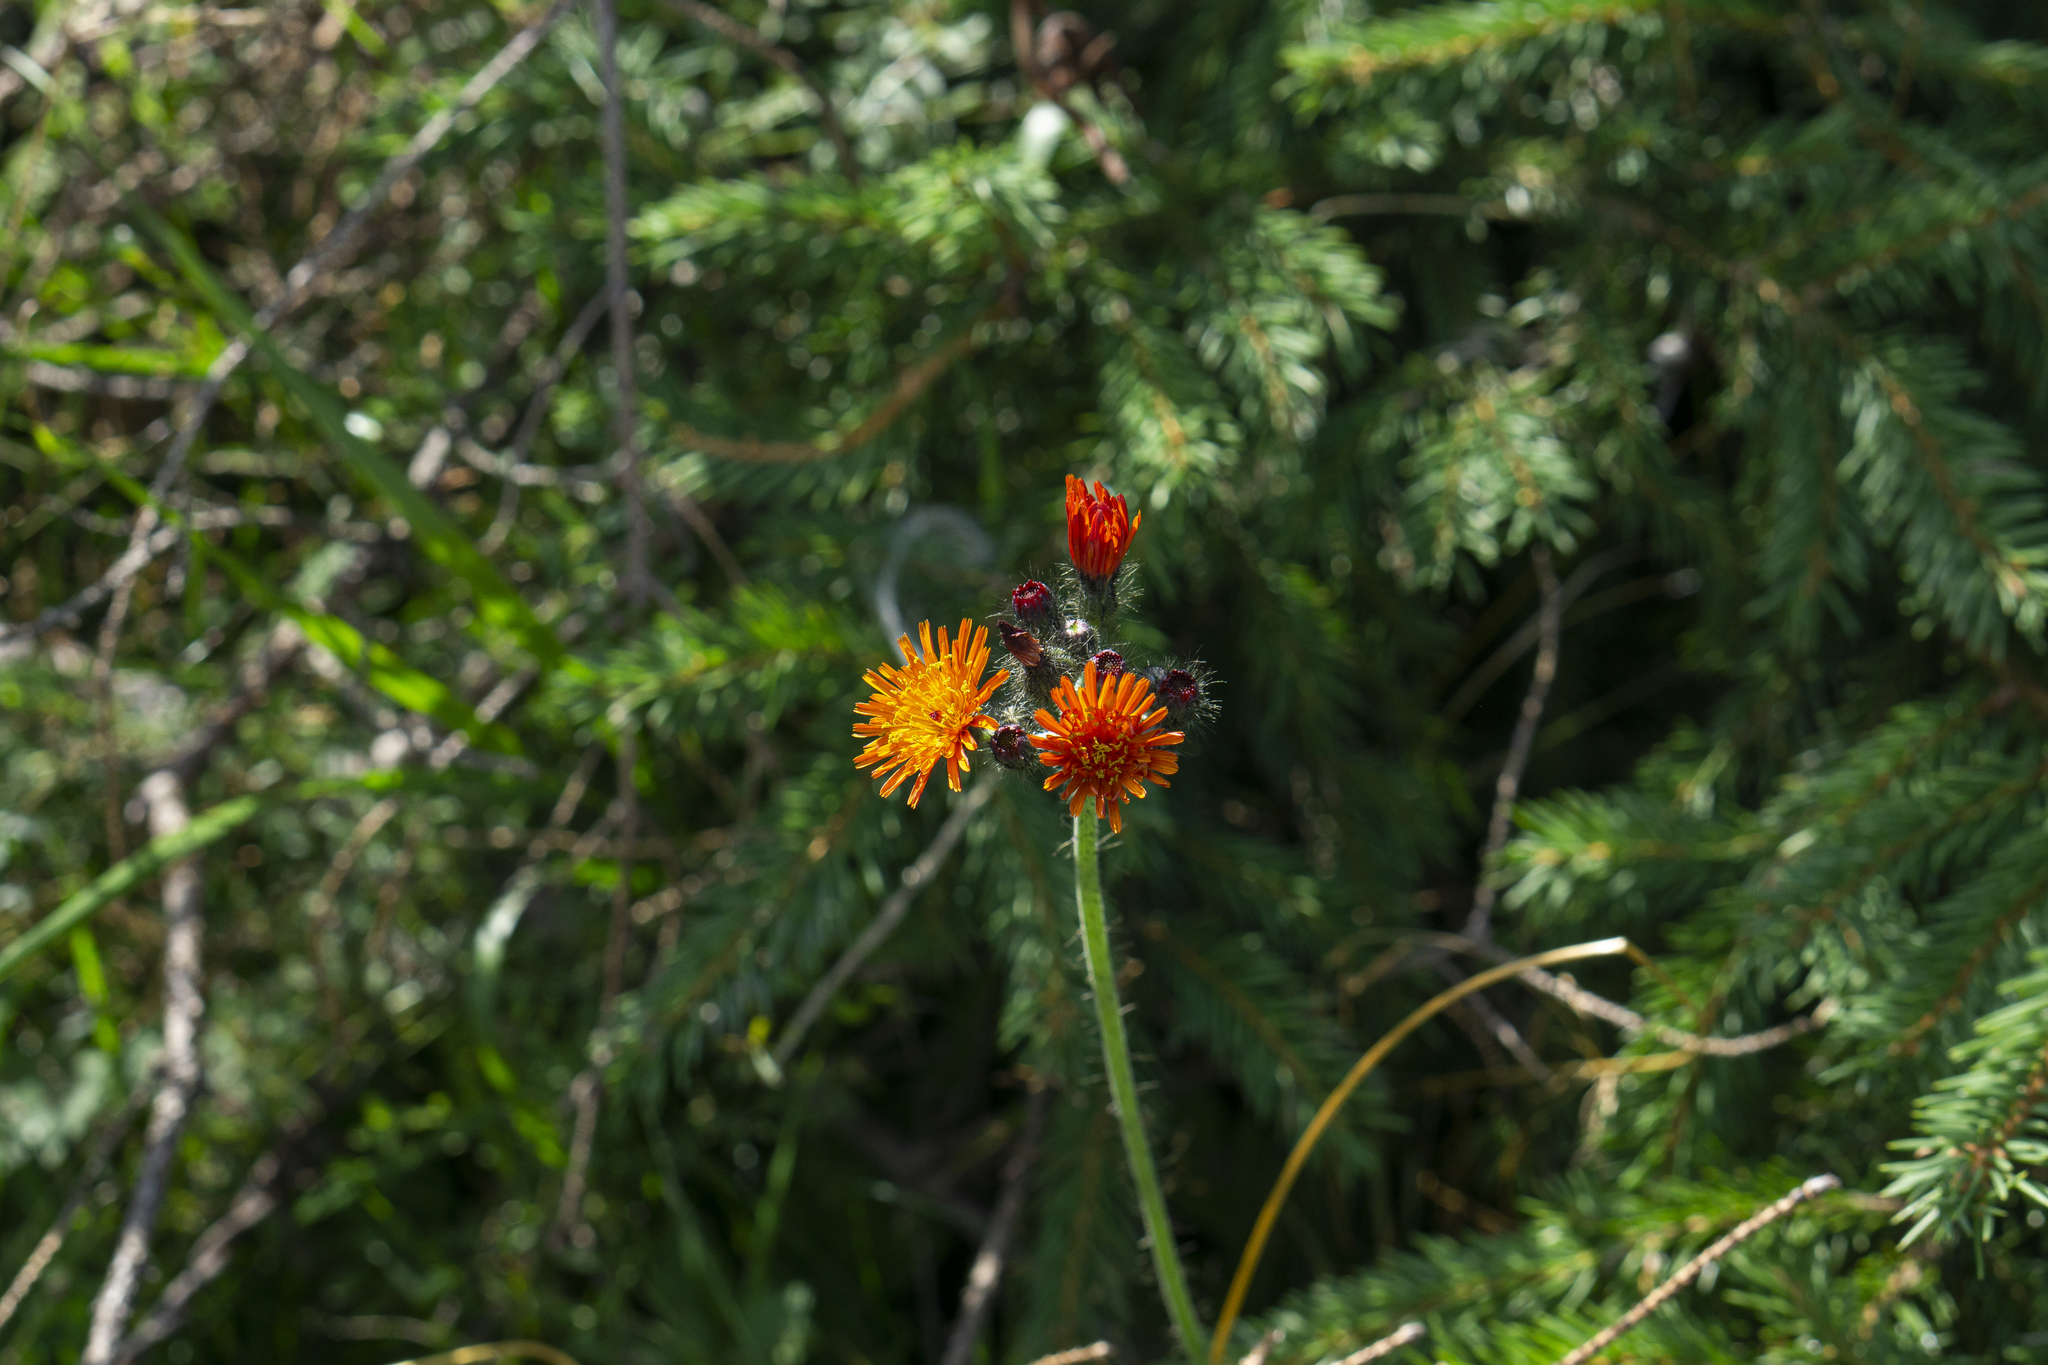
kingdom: Plantae
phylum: Tracheophyta
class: Magnoliopsida
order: Asterales
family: Asteraceae
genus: Pilosella
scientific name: Pilosella aurantiaca
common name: Fox-and-cubs
